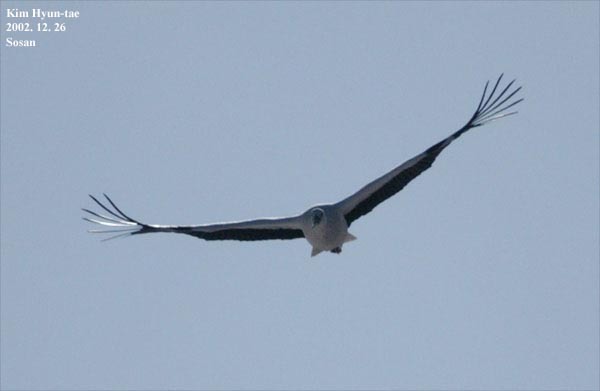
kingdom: Animalia
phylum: Chordata
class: Aves
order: Ciconiiformes
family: Ciconiidae
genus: Ciconia
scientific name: Ciconia boyciana
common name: Oriental stork
